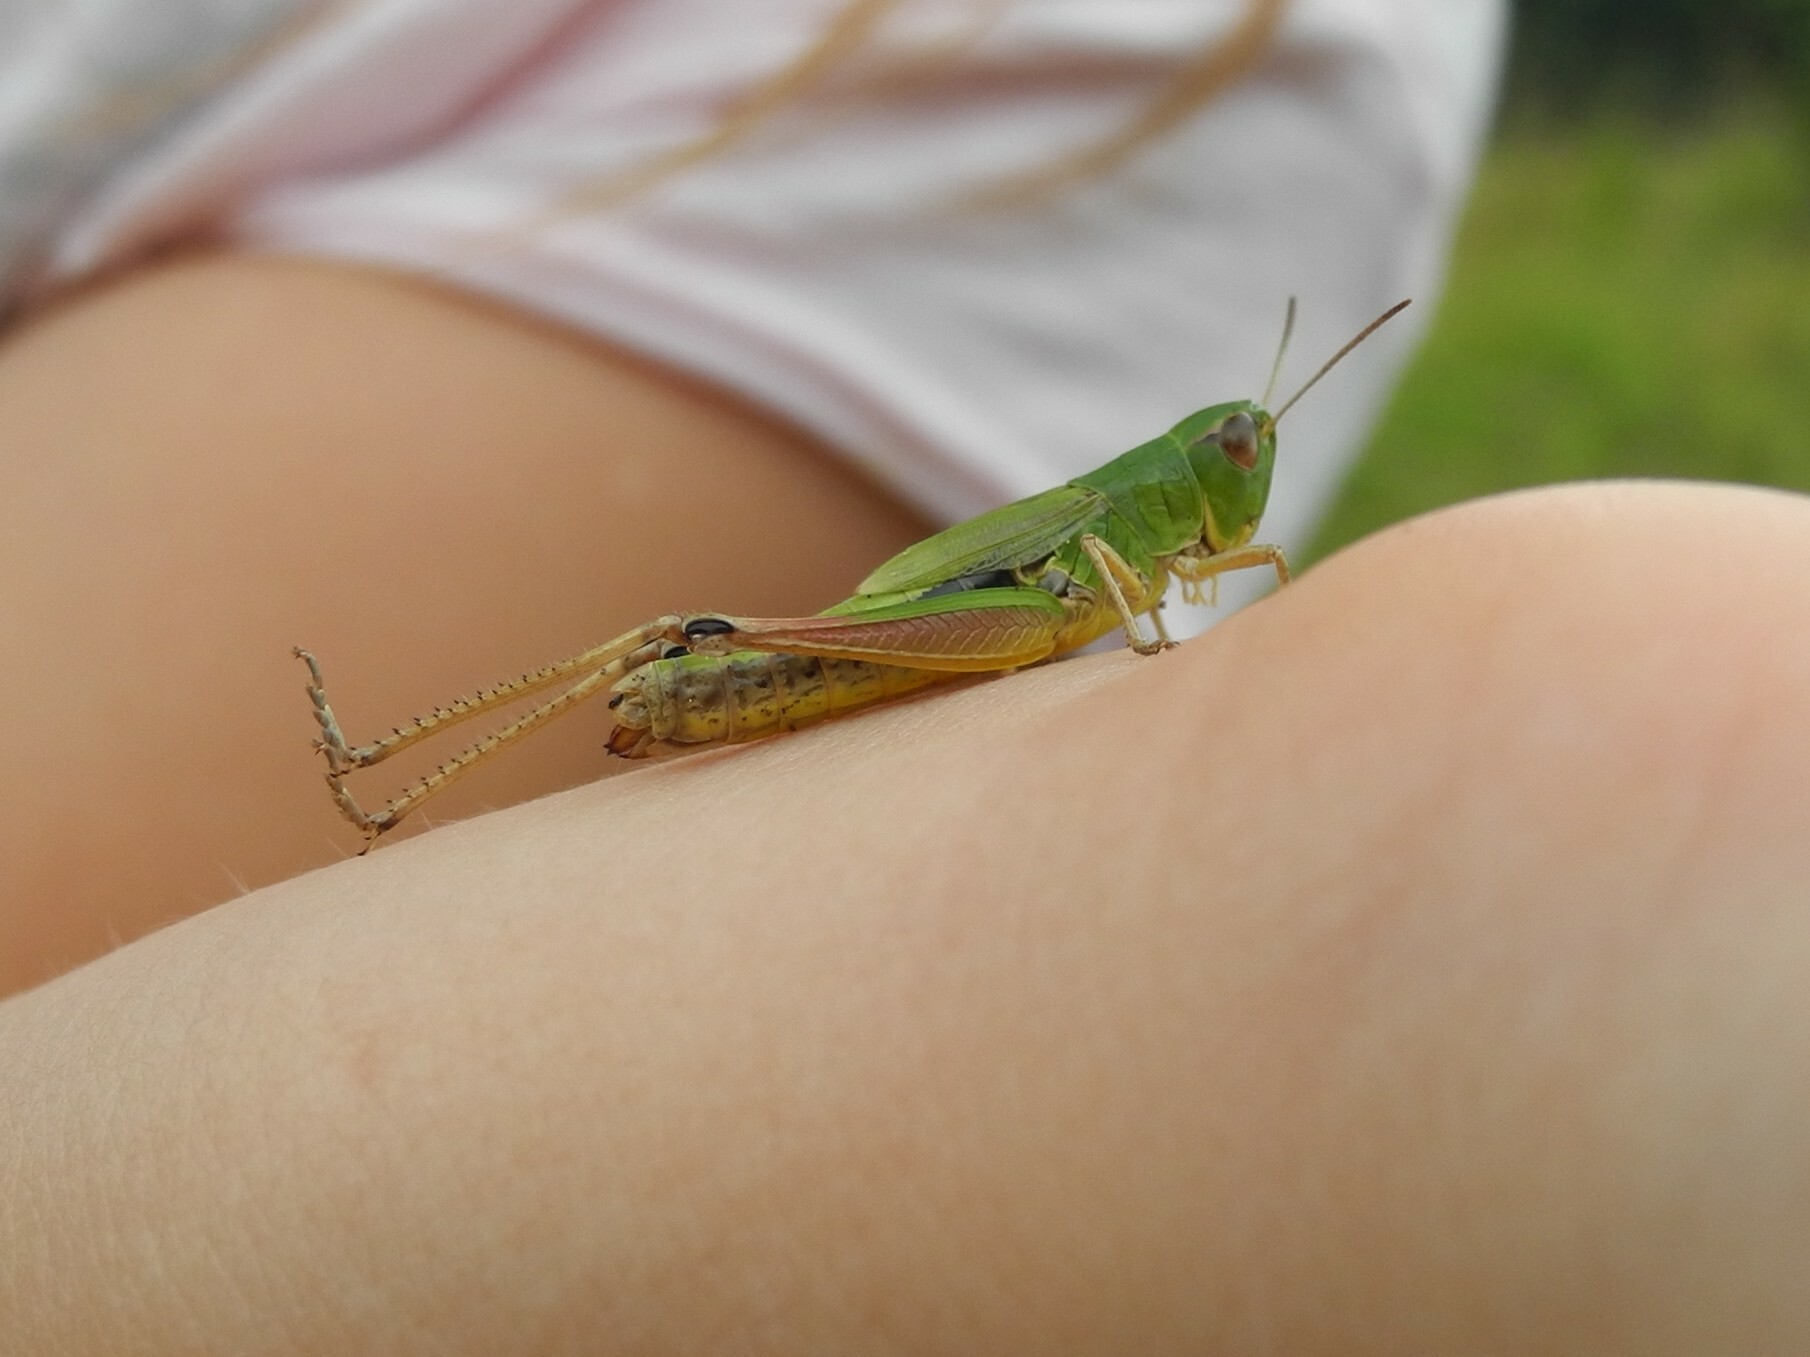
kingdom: Animalia
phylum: Arthropoda
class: Insecta
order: Orthoptera
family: Acrididae
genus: Pseudochorthippus
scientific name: Pseudochorthippus parallelus
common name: Meadow grasshopper
